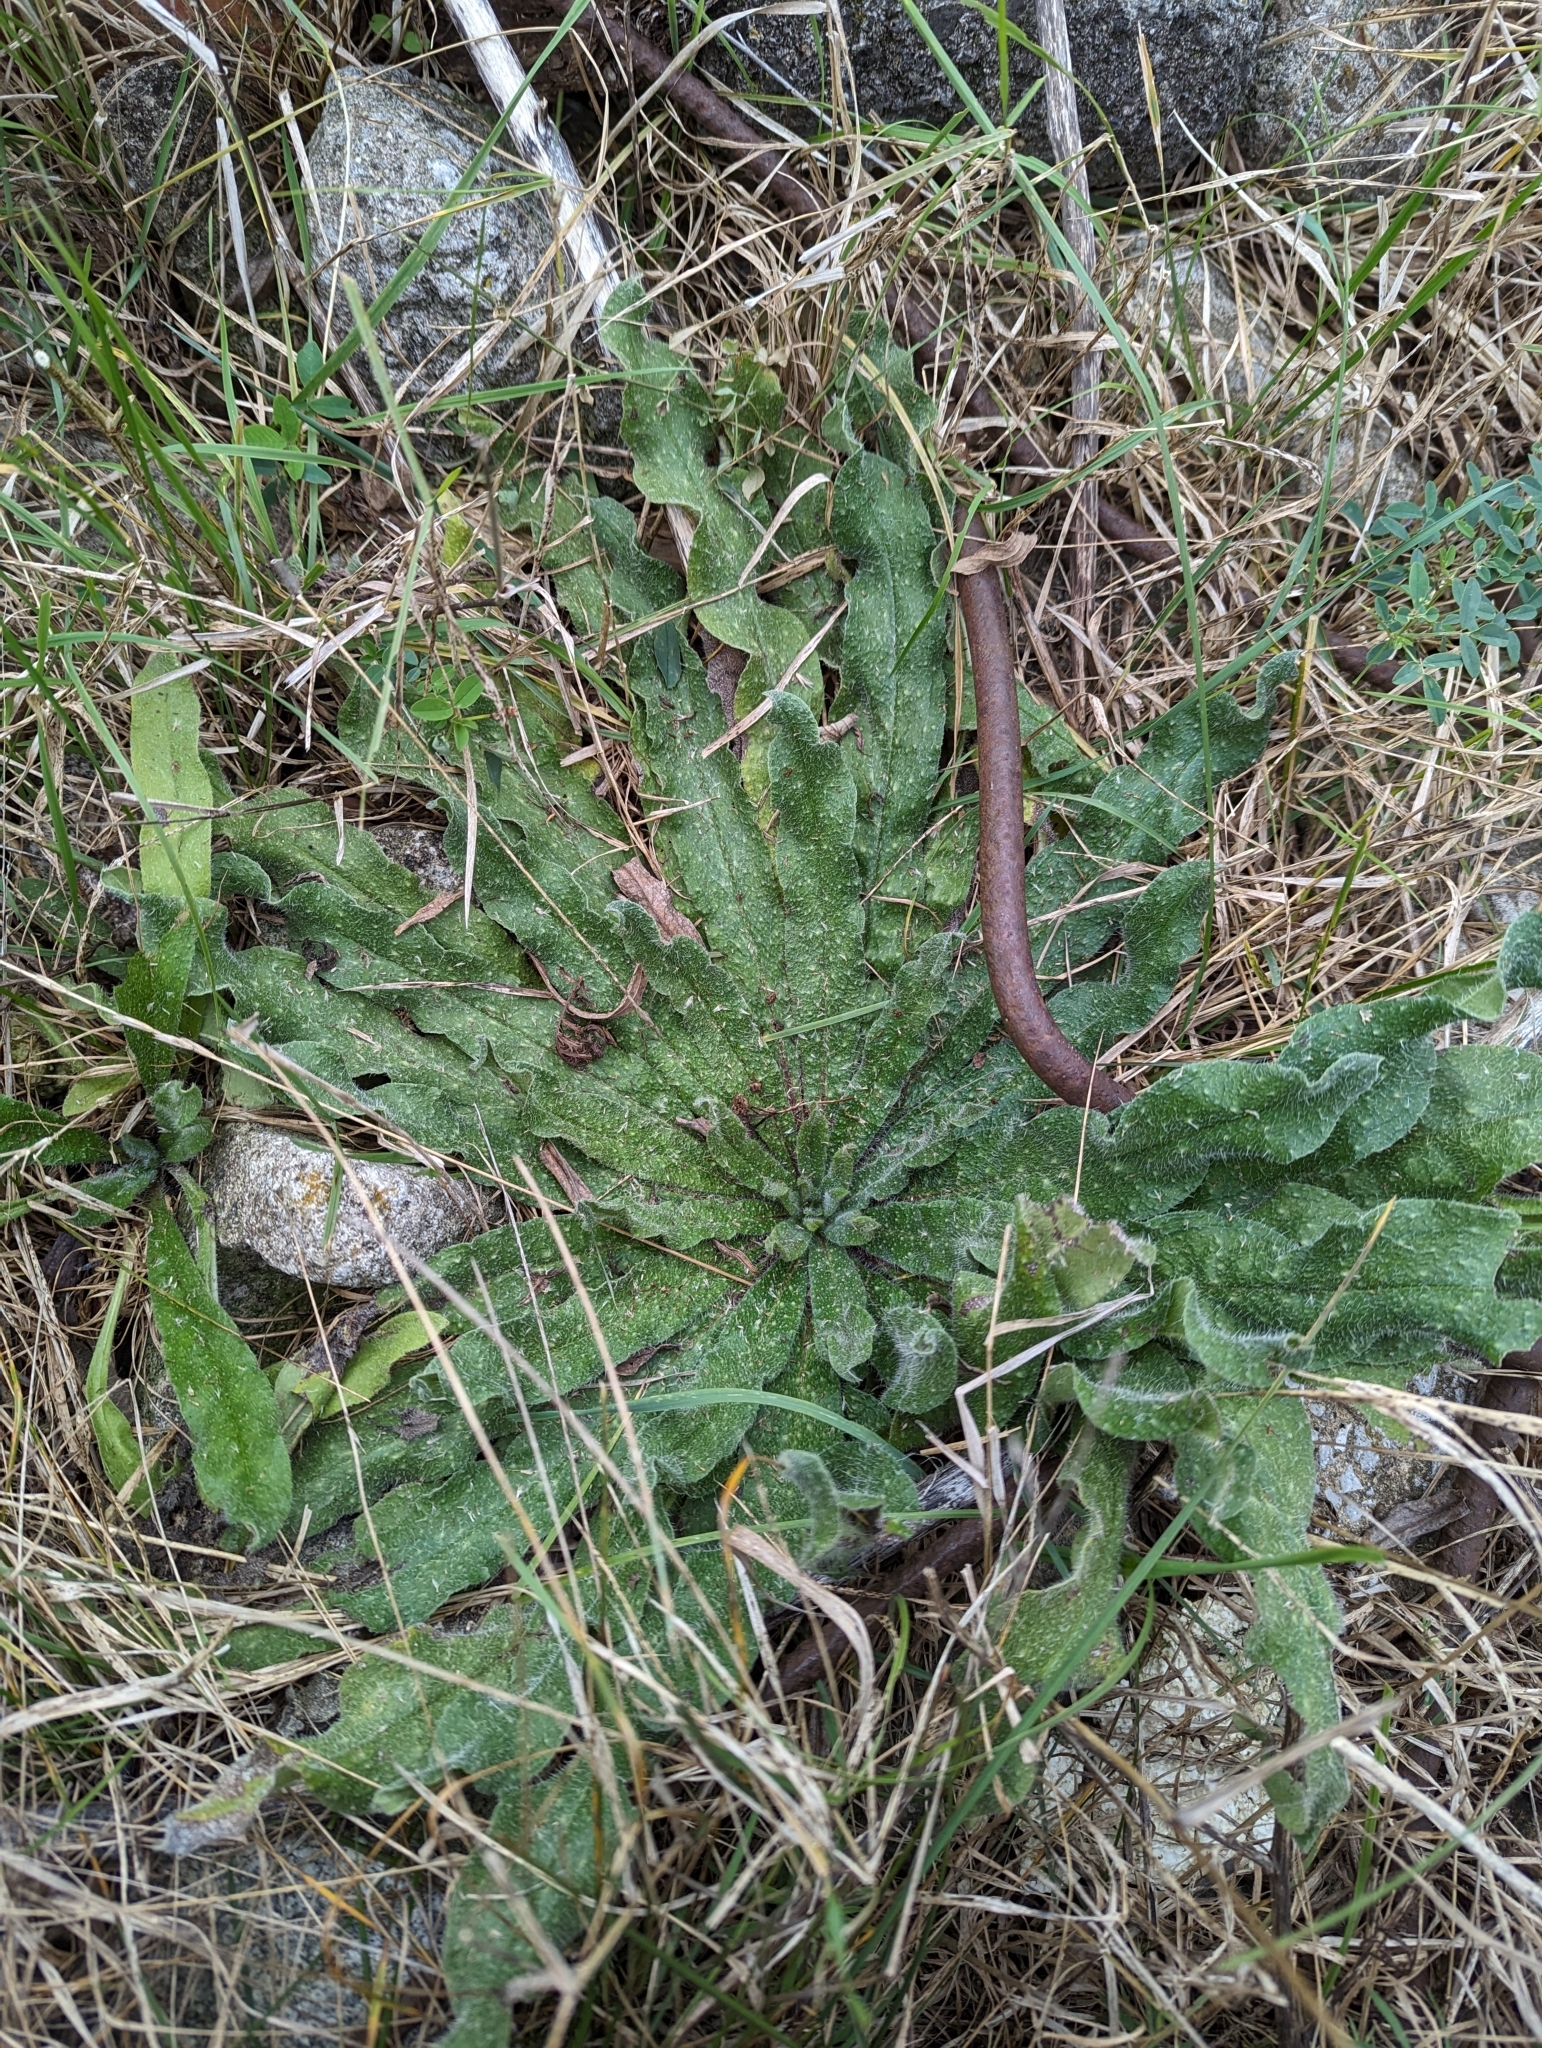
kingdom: Plantae
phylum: Tracheophyta
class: Magnoliopsida
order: Boraginales
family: Boraginaceae
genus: Echium
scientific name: Echium vulgare
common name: Common viper's bugloss
